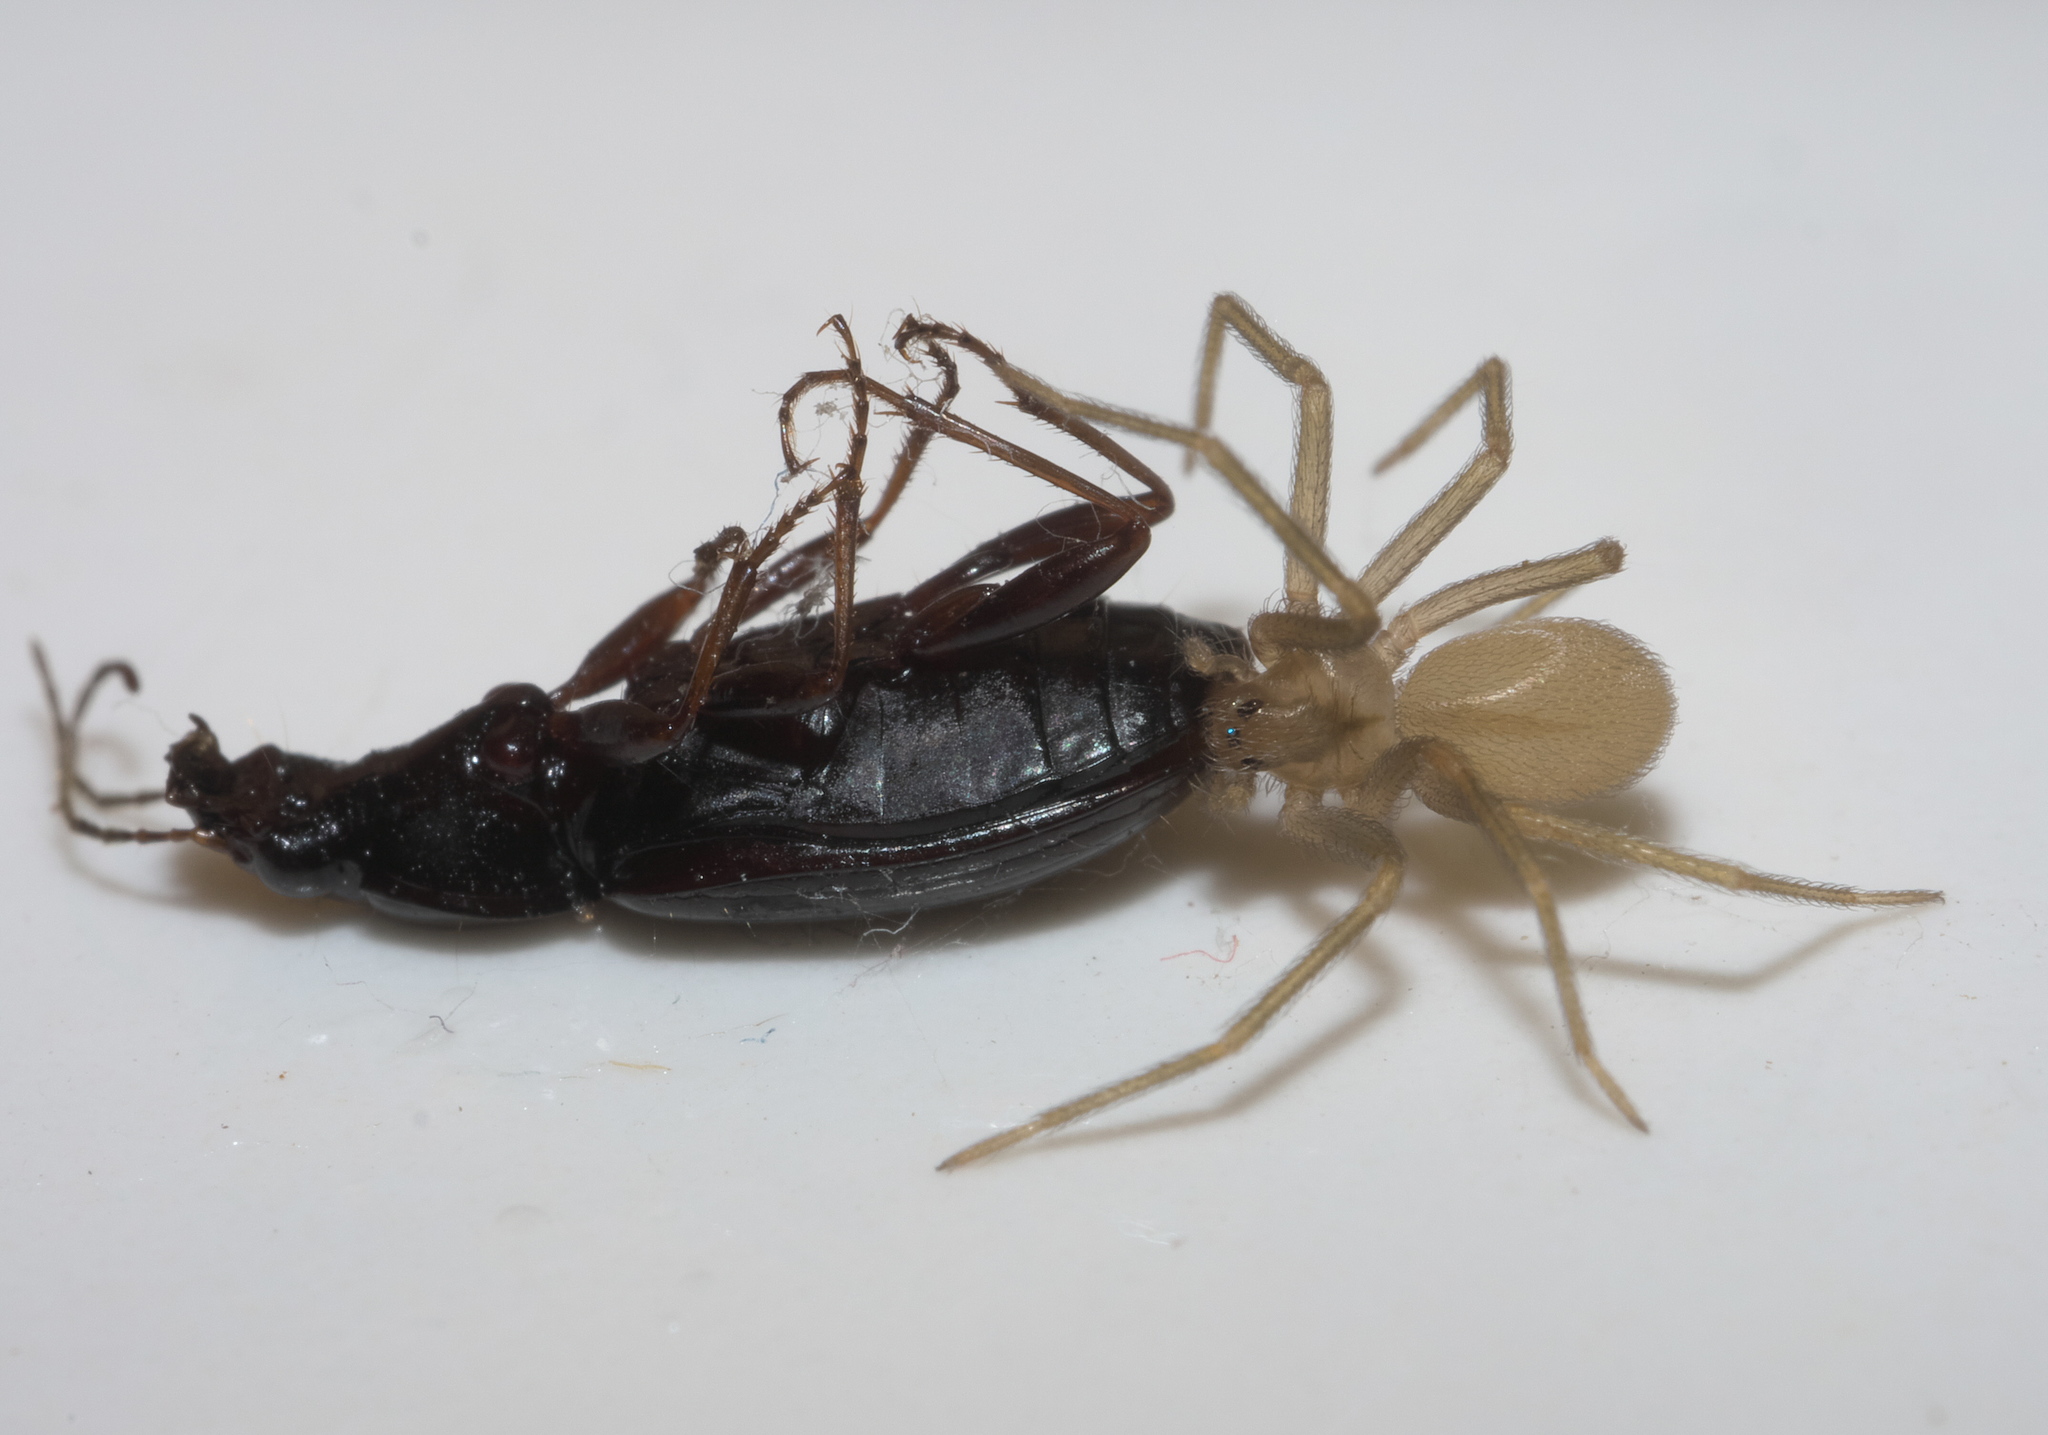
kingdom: Animalia
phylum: Arthropoda
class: Arachnida
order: Araneae
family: Sicariidae
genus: Loxosceles
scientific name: Loxosceles reclusa
